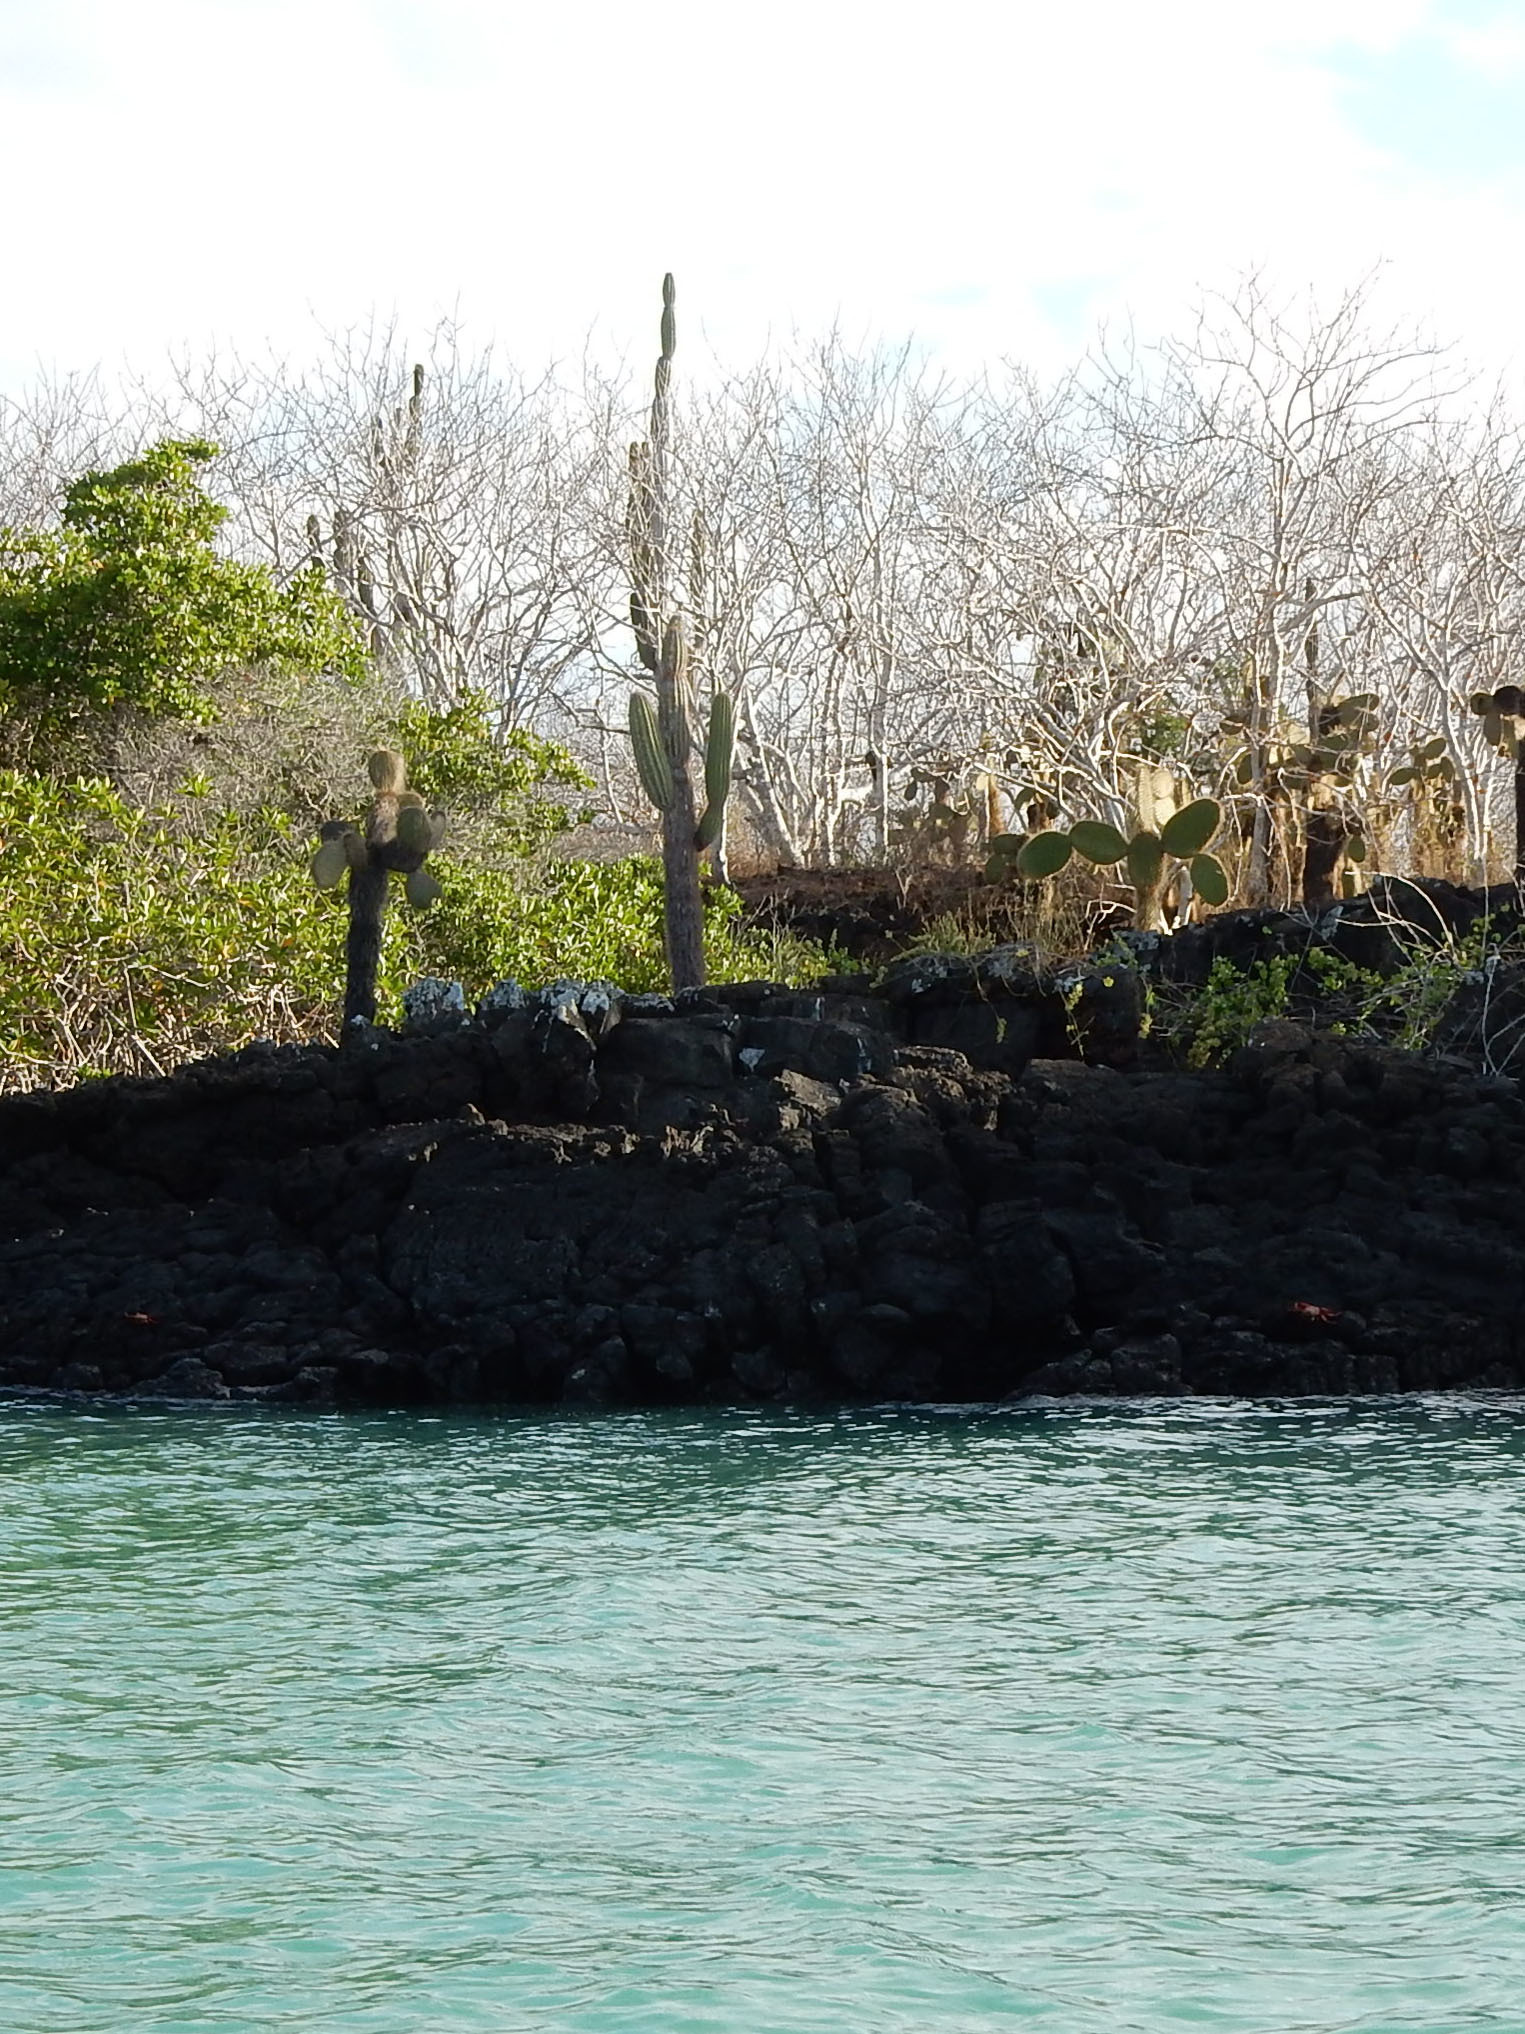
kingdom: Plantae
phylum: Tracheophyta
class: Magnoliopsida
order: Caryophyllales
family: Cactaceae
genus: Opuntia
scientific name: Opuntia galapageia
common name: Galápagos prickly pear
